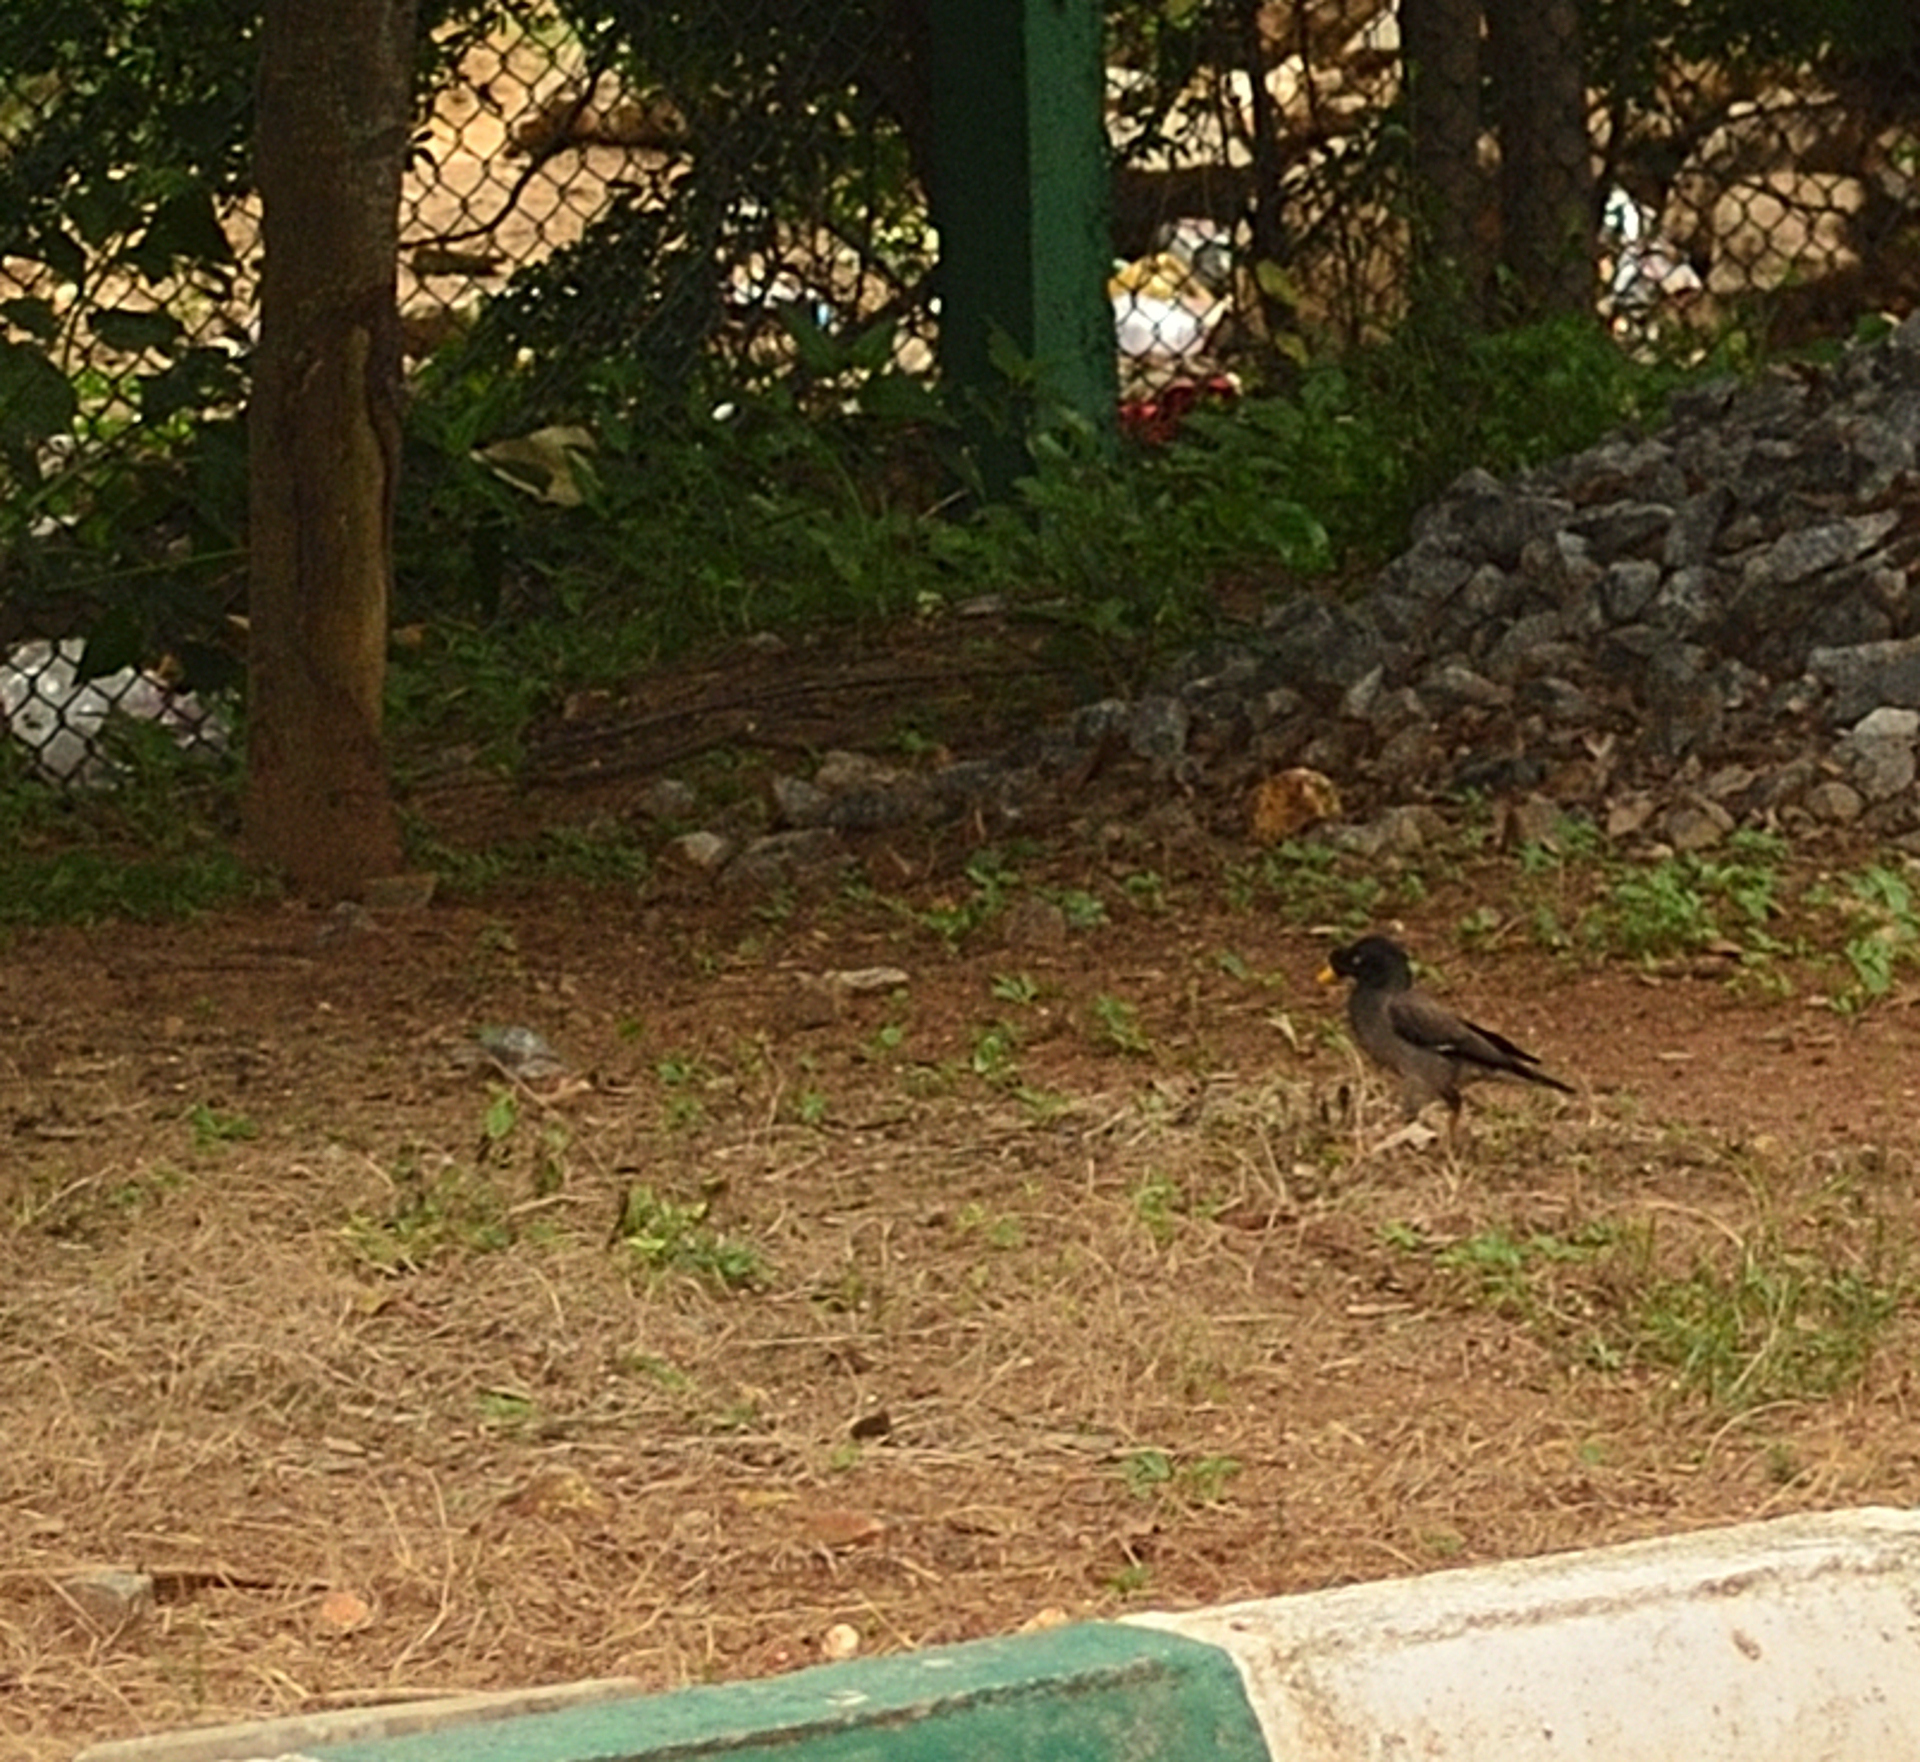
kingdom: Animalia
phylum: Chordata
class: Aves
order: Passeriformes
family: Sturnidae
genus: Acridotheres
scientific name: Acridotheres fuscus
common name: Jungle myna
